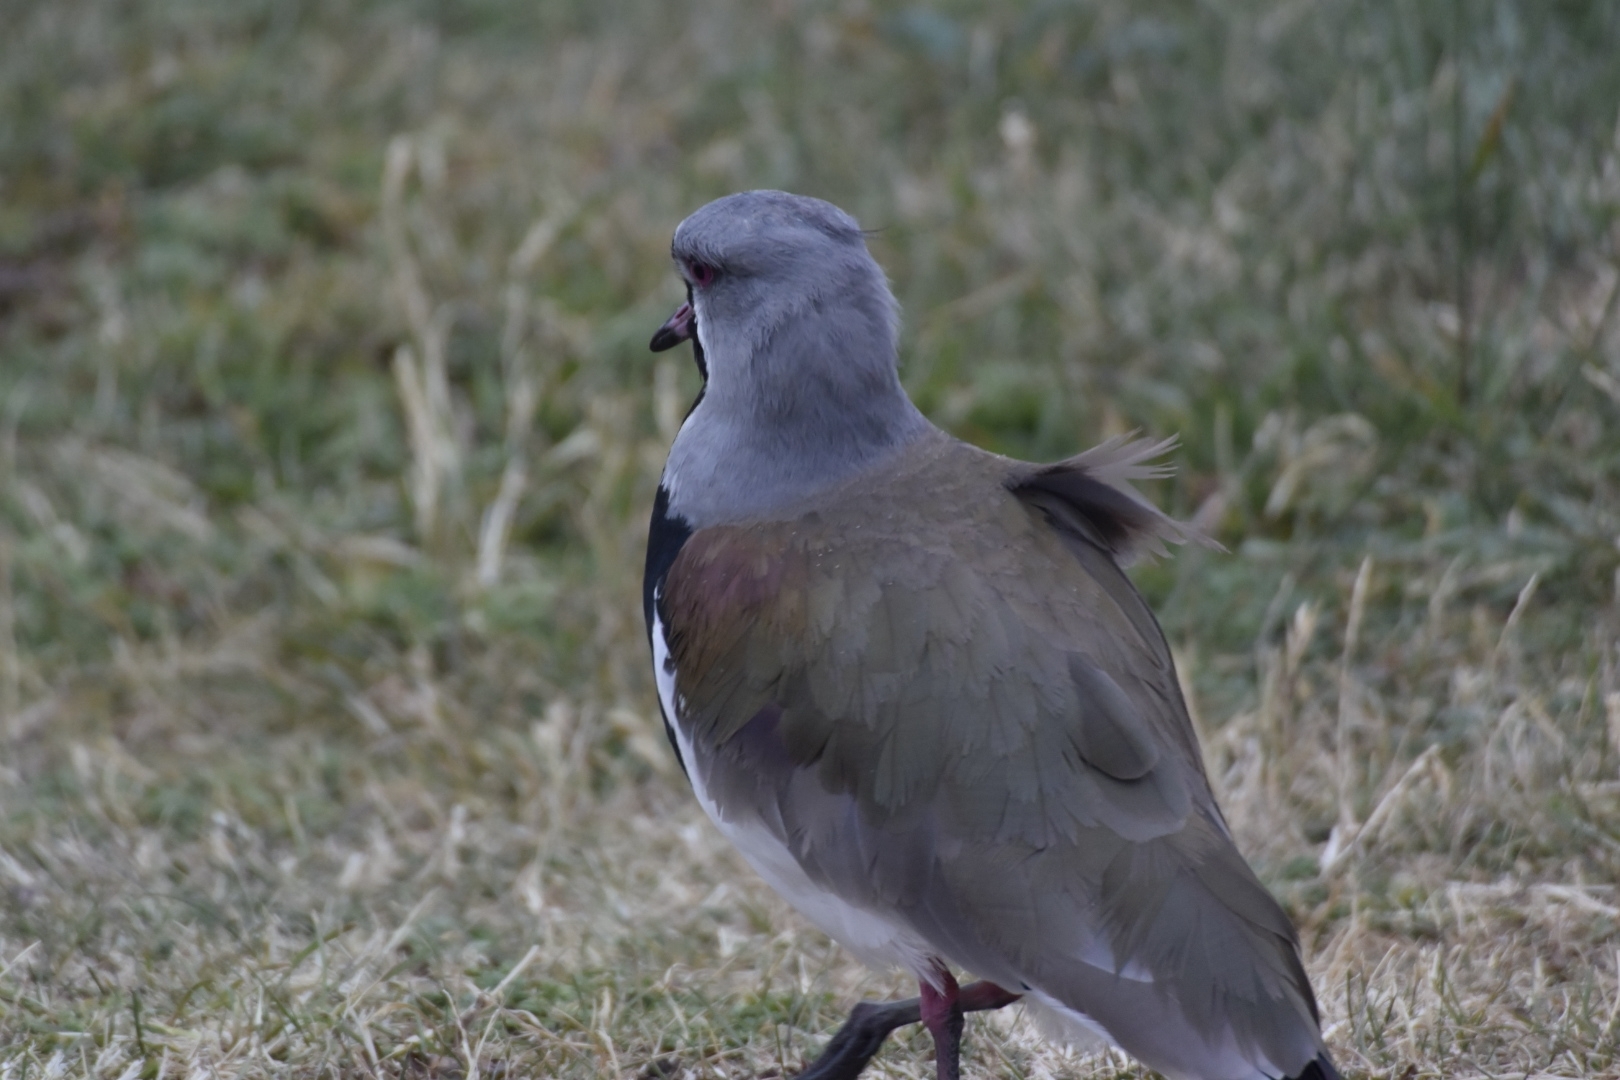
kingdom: Animalia
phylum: Chordata
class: Aves
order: Charadriiformes
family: Charadriidae
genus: Vanellus
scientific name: Vanellus chilensis
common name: Southern lapwing
